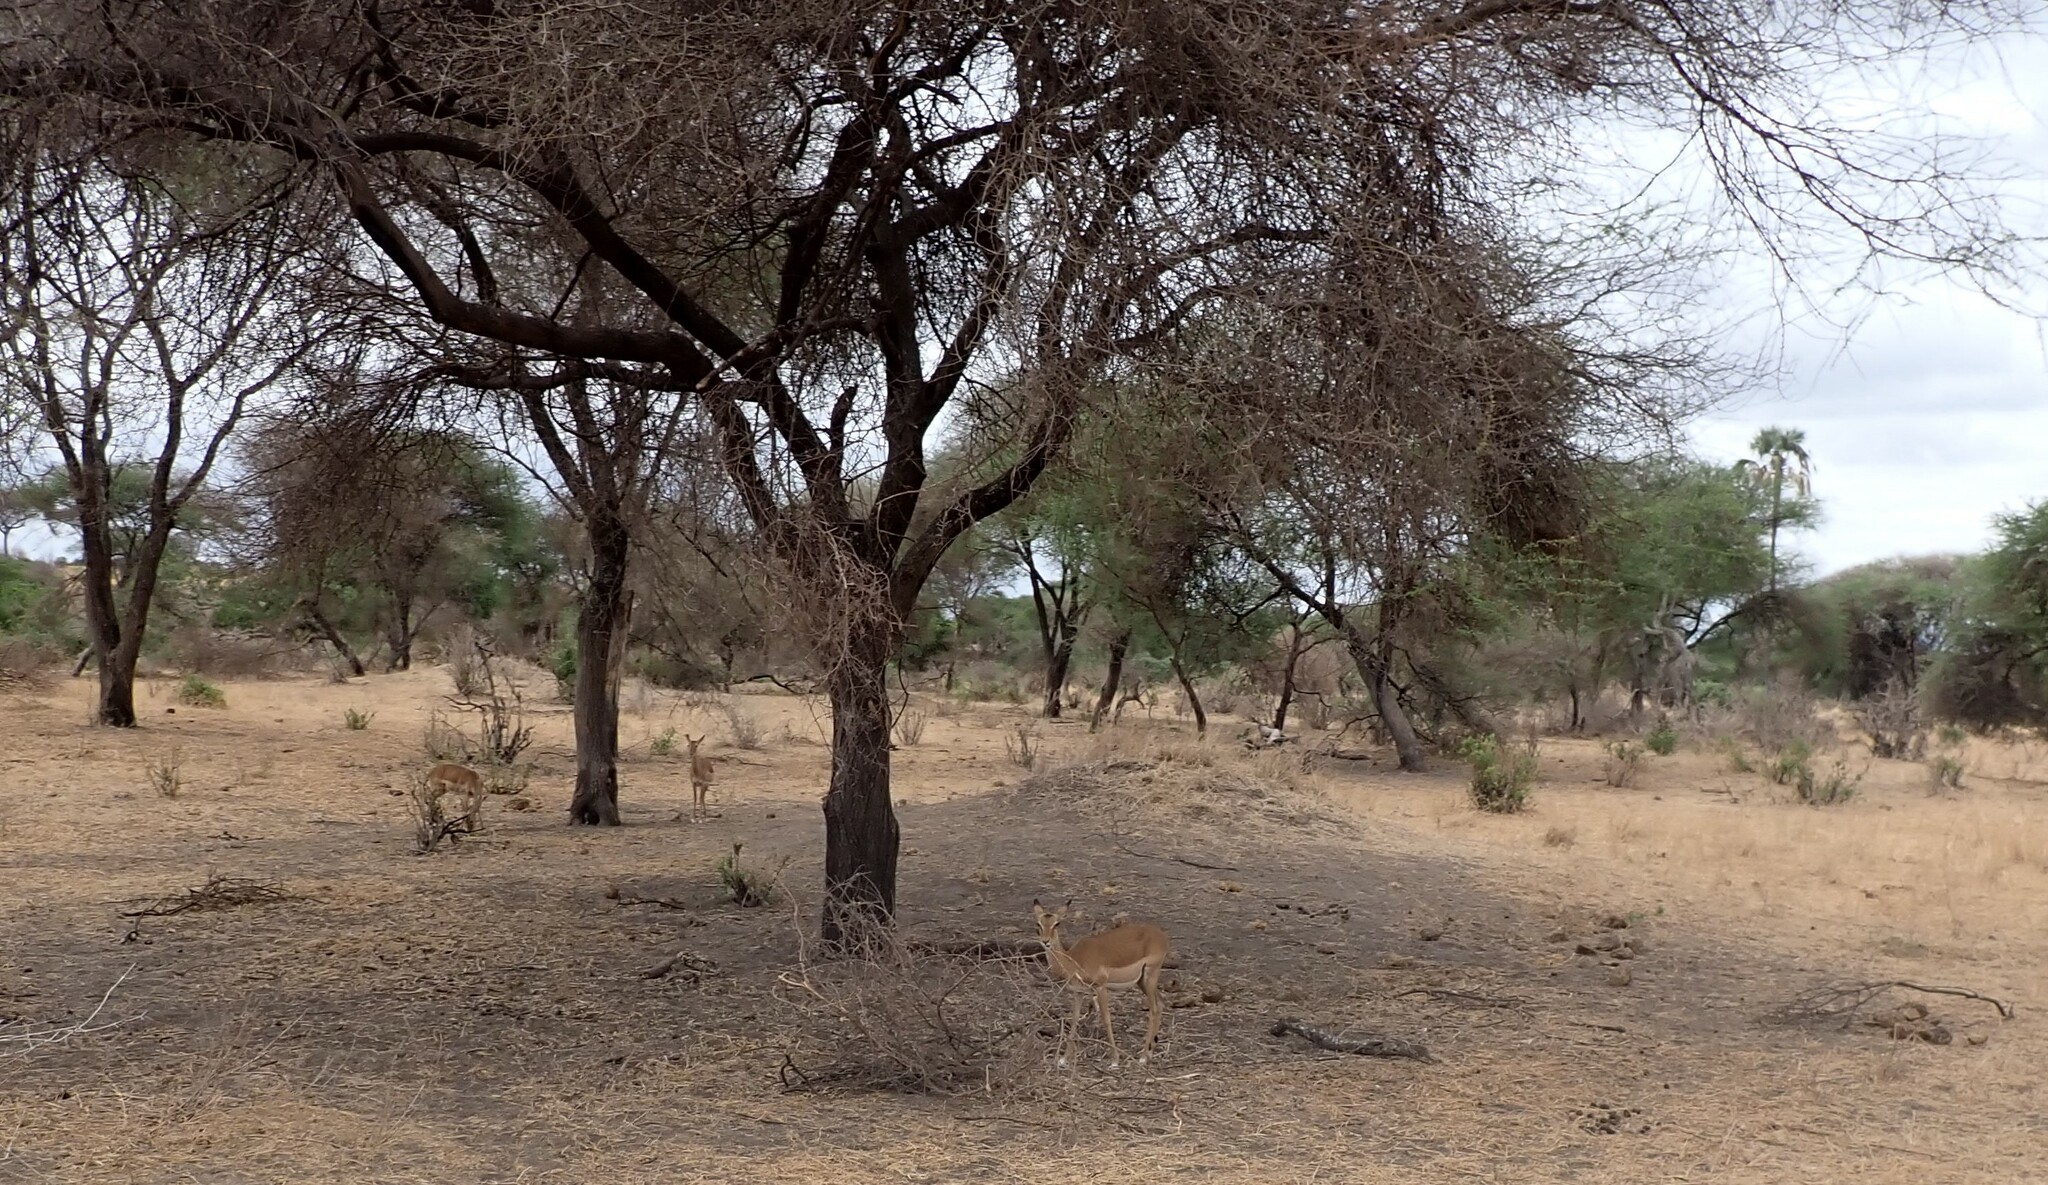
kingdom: Animalia
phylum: Chordata
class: Mammalia
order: Artiodactyla
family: Bovidae
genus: Aepyceros
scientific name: Aepyceros melampus
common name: Impala
